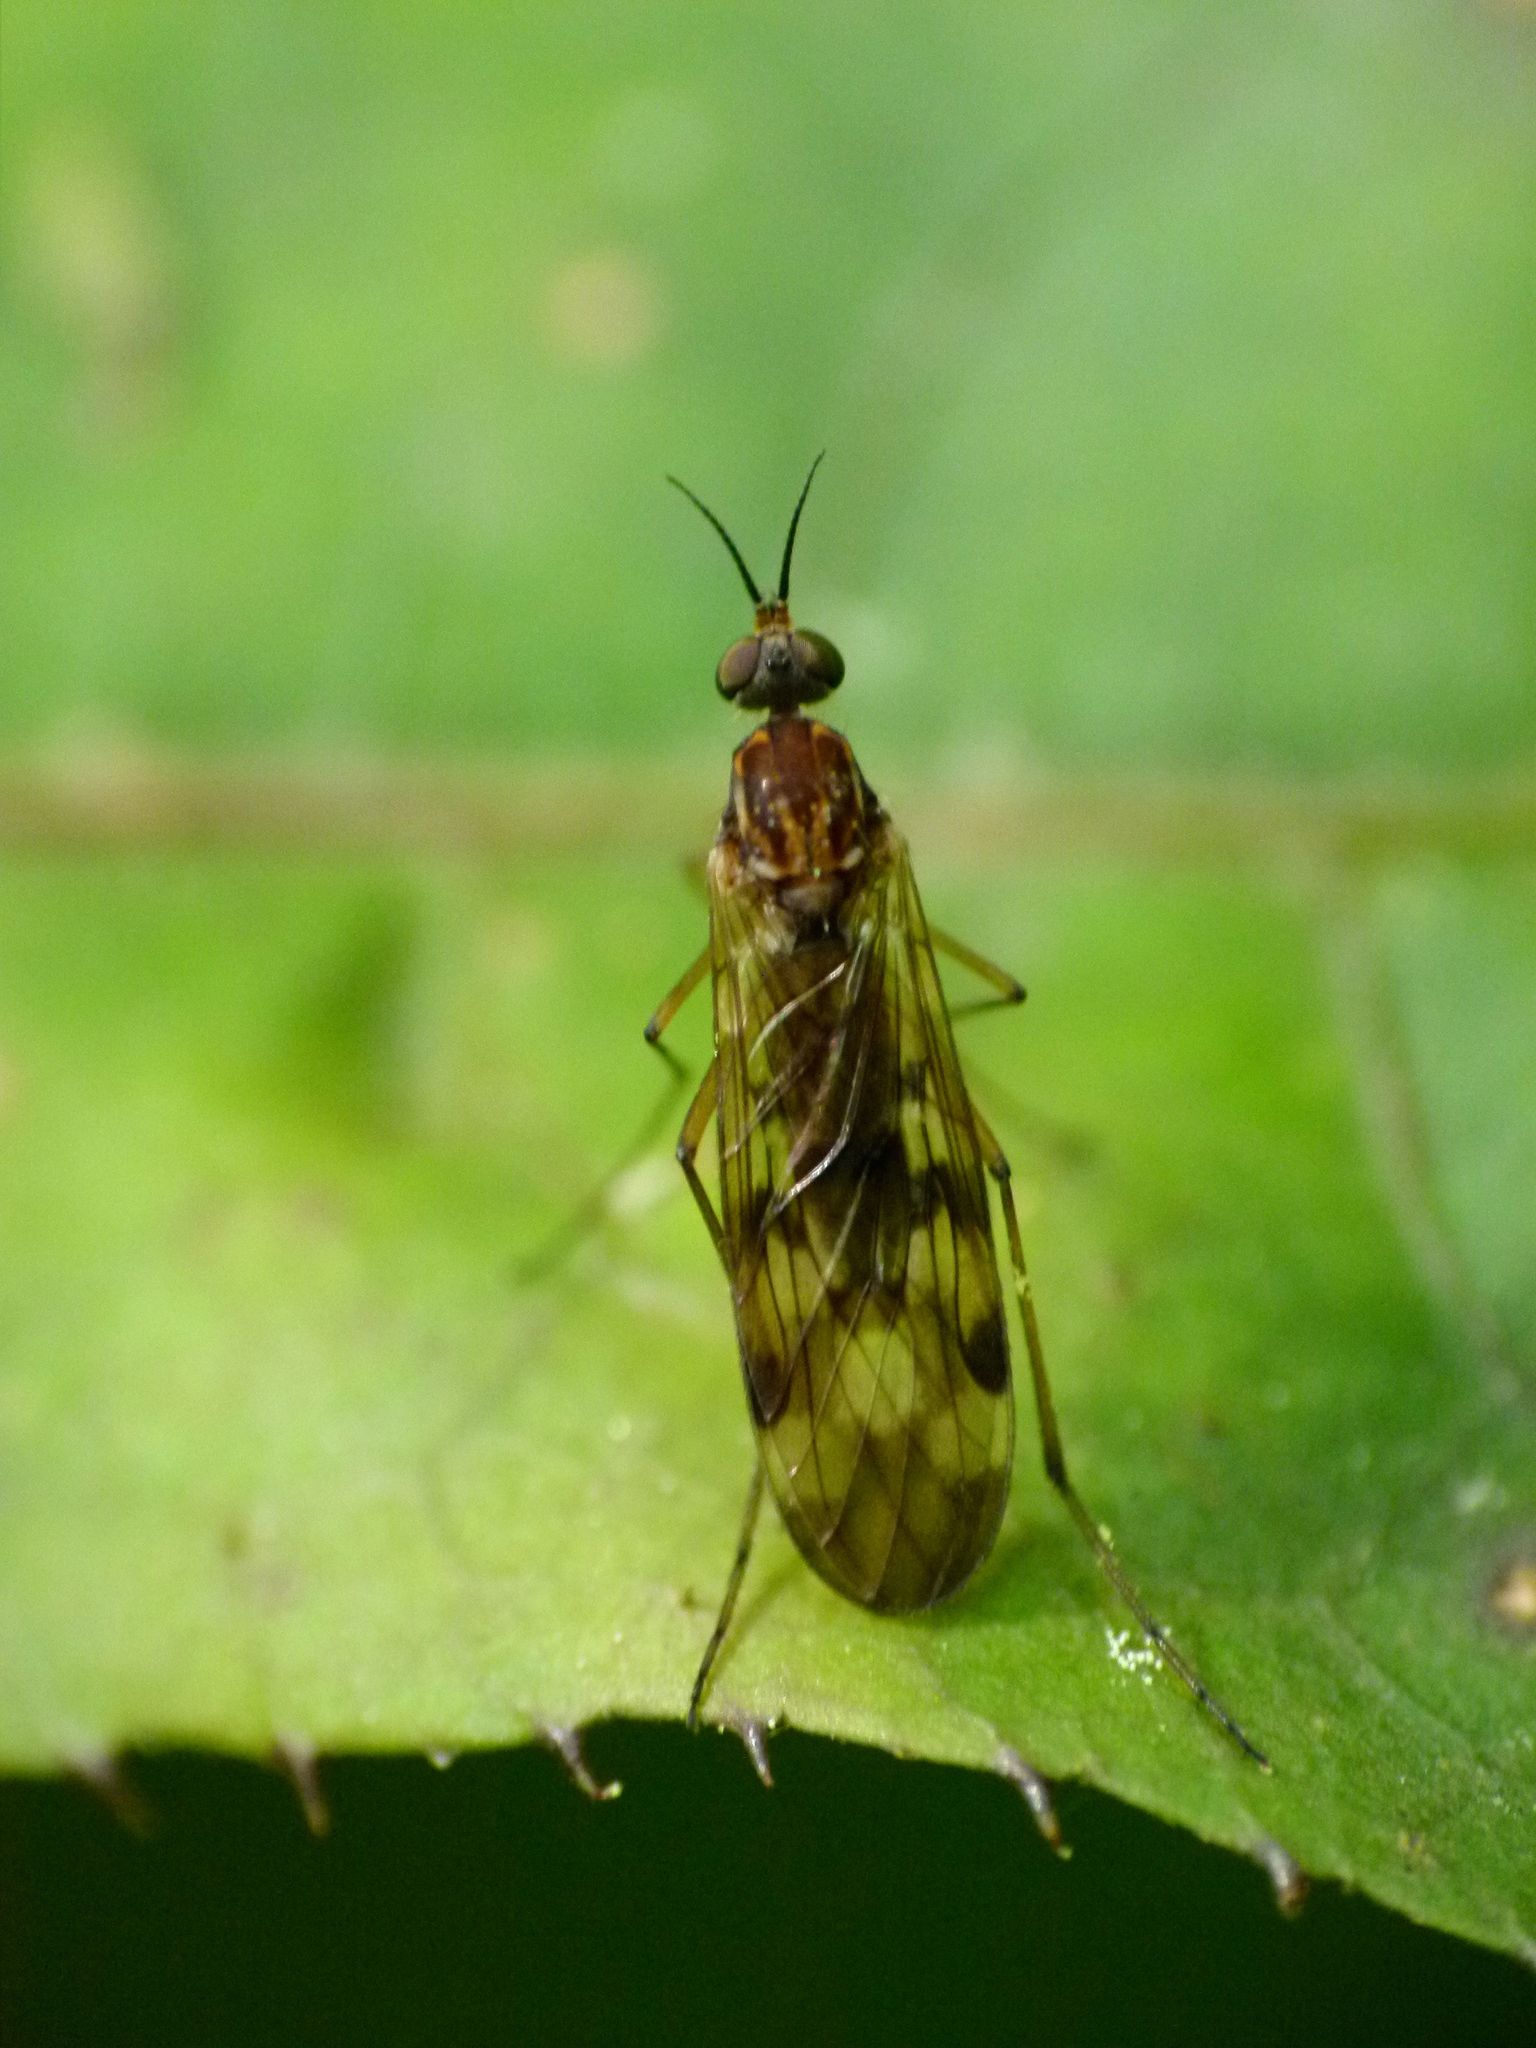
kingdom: Animalia
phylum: Arthropoda
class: Insecta
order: Diptera
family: Anisopodidae
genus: Sylvicola
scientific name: Sylvicola undulatus
